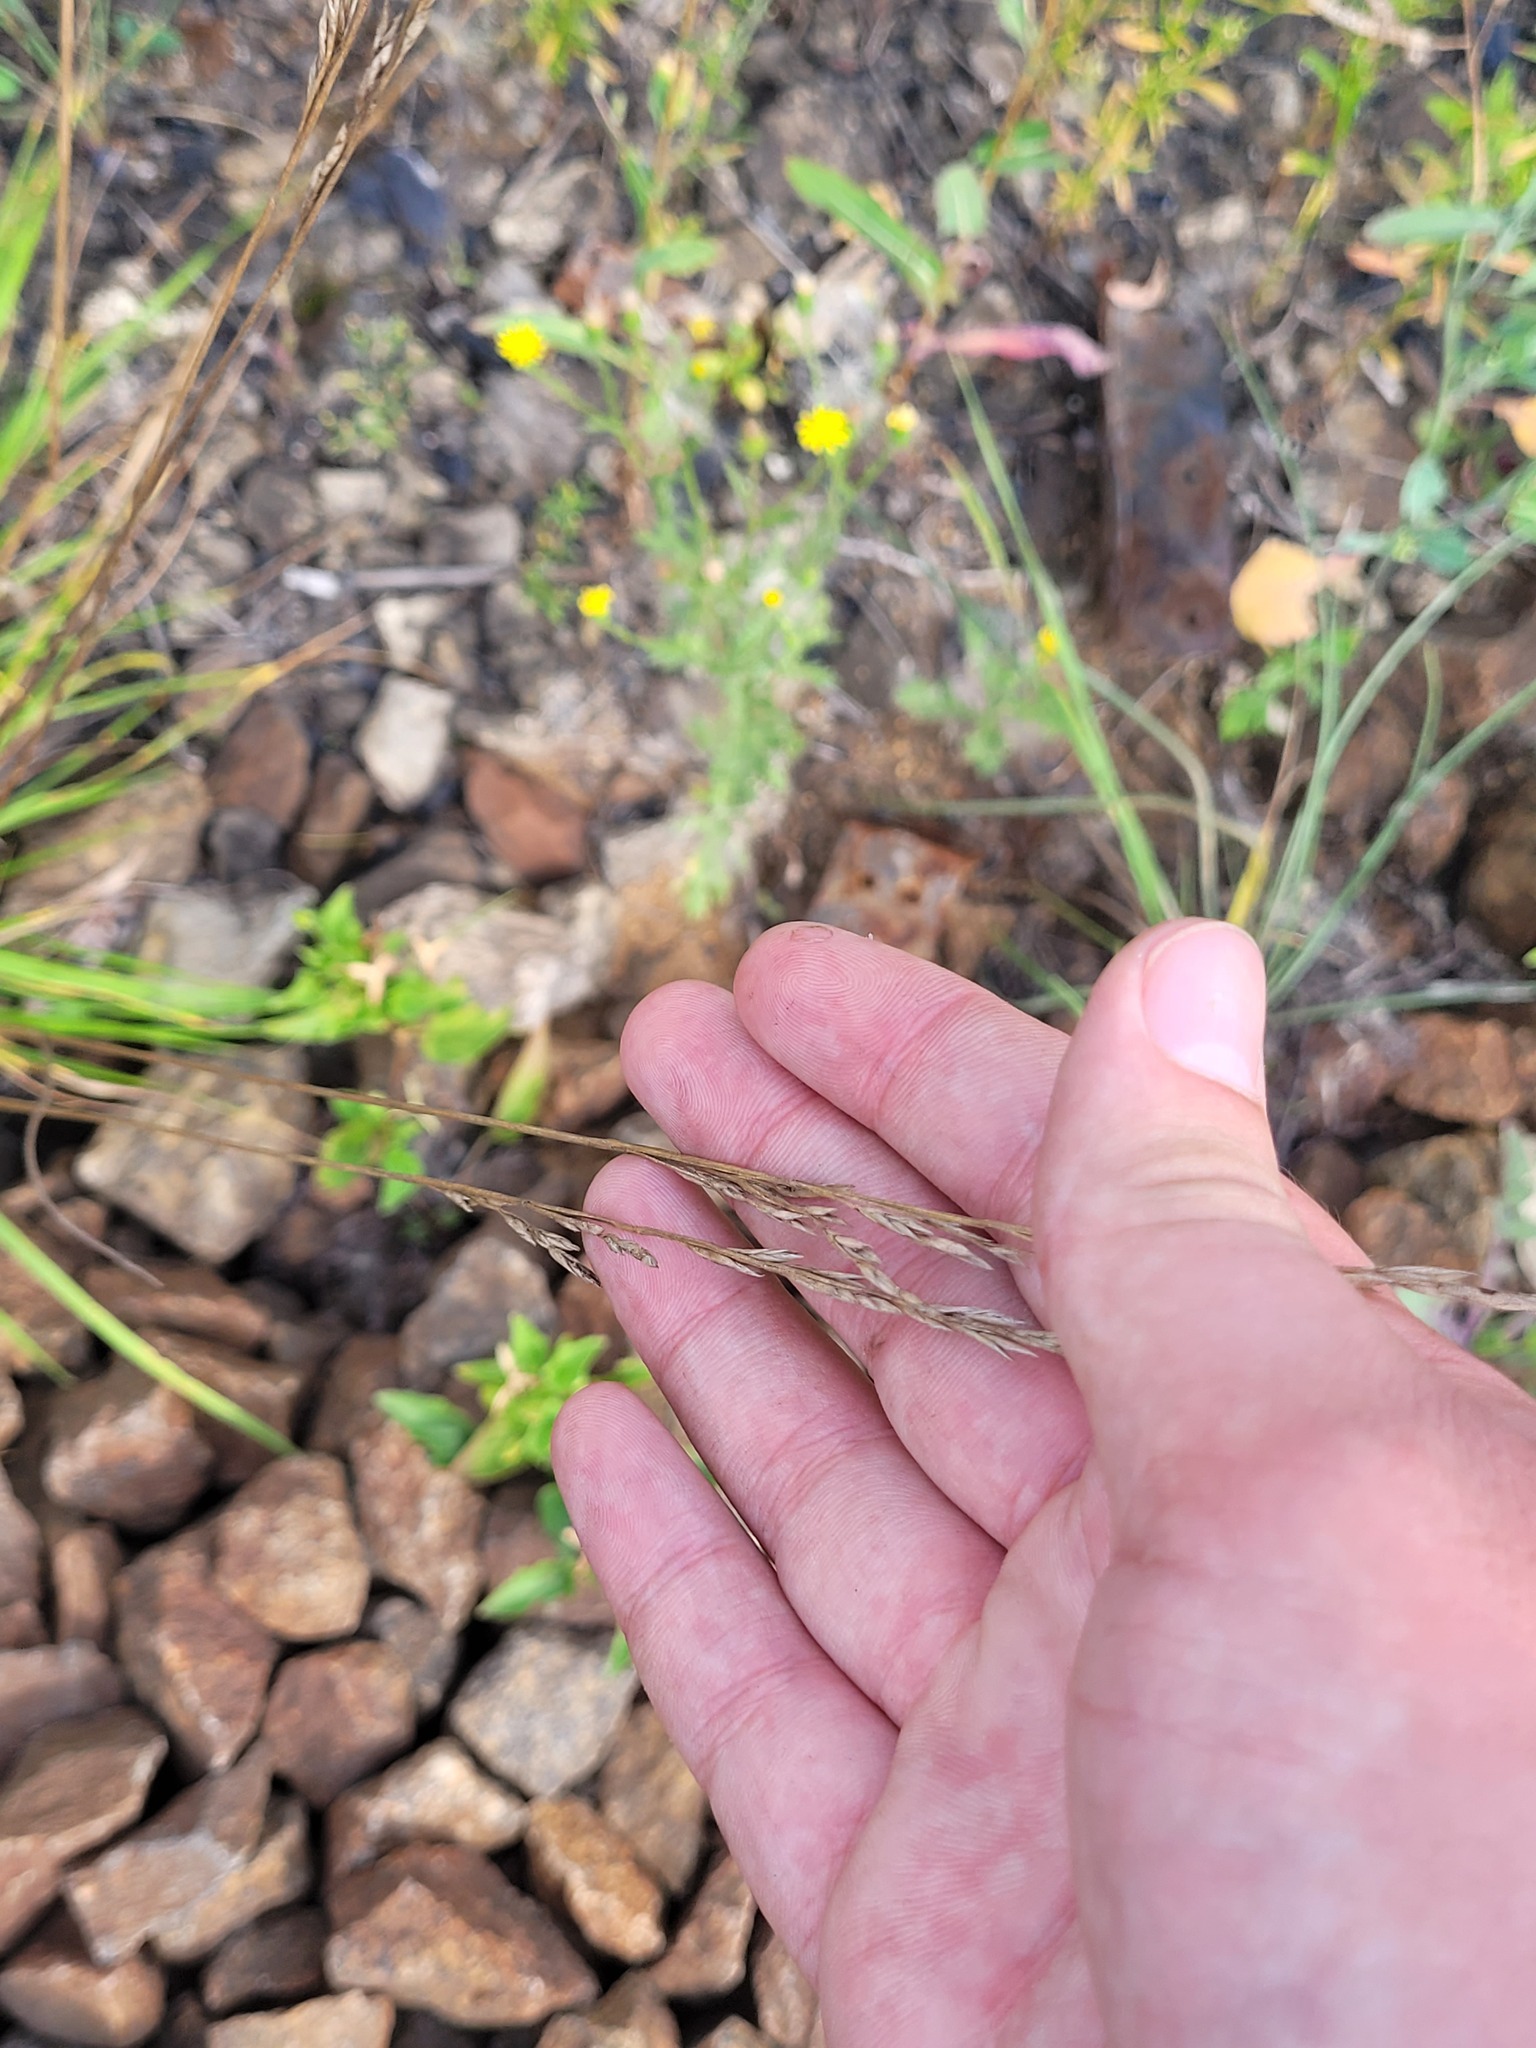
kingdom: Plantae
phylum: Tracheophyta
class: Liliopsida
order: Poales
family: Poaceae
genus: Lolium
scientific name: Lolium pratense
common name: Dover grass
